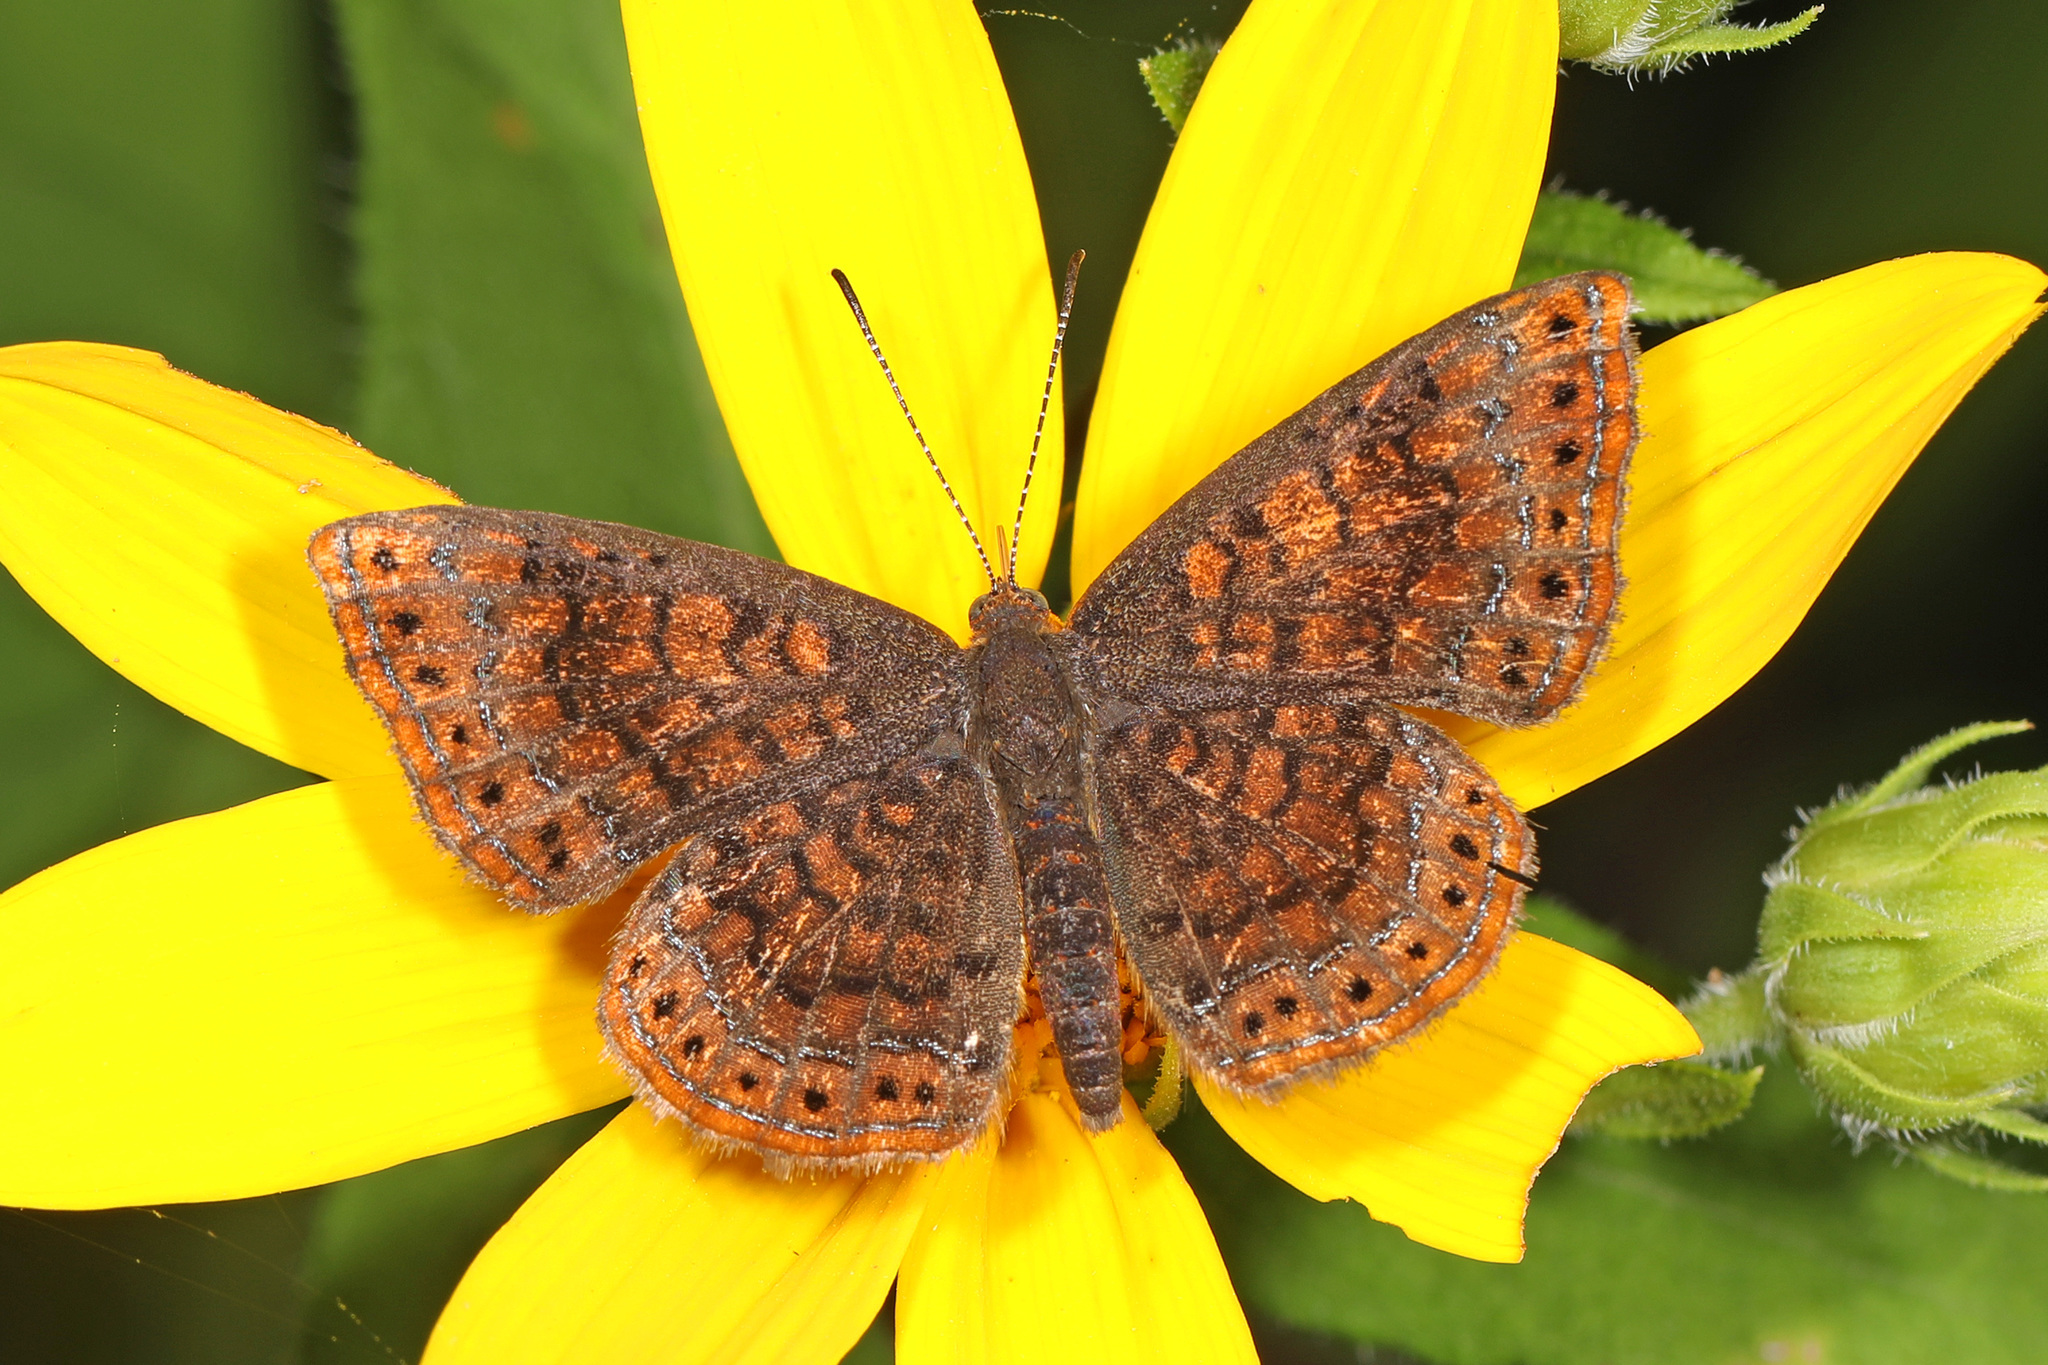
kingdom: Animalia
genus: Calephelis
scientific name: Calephelis borealis
